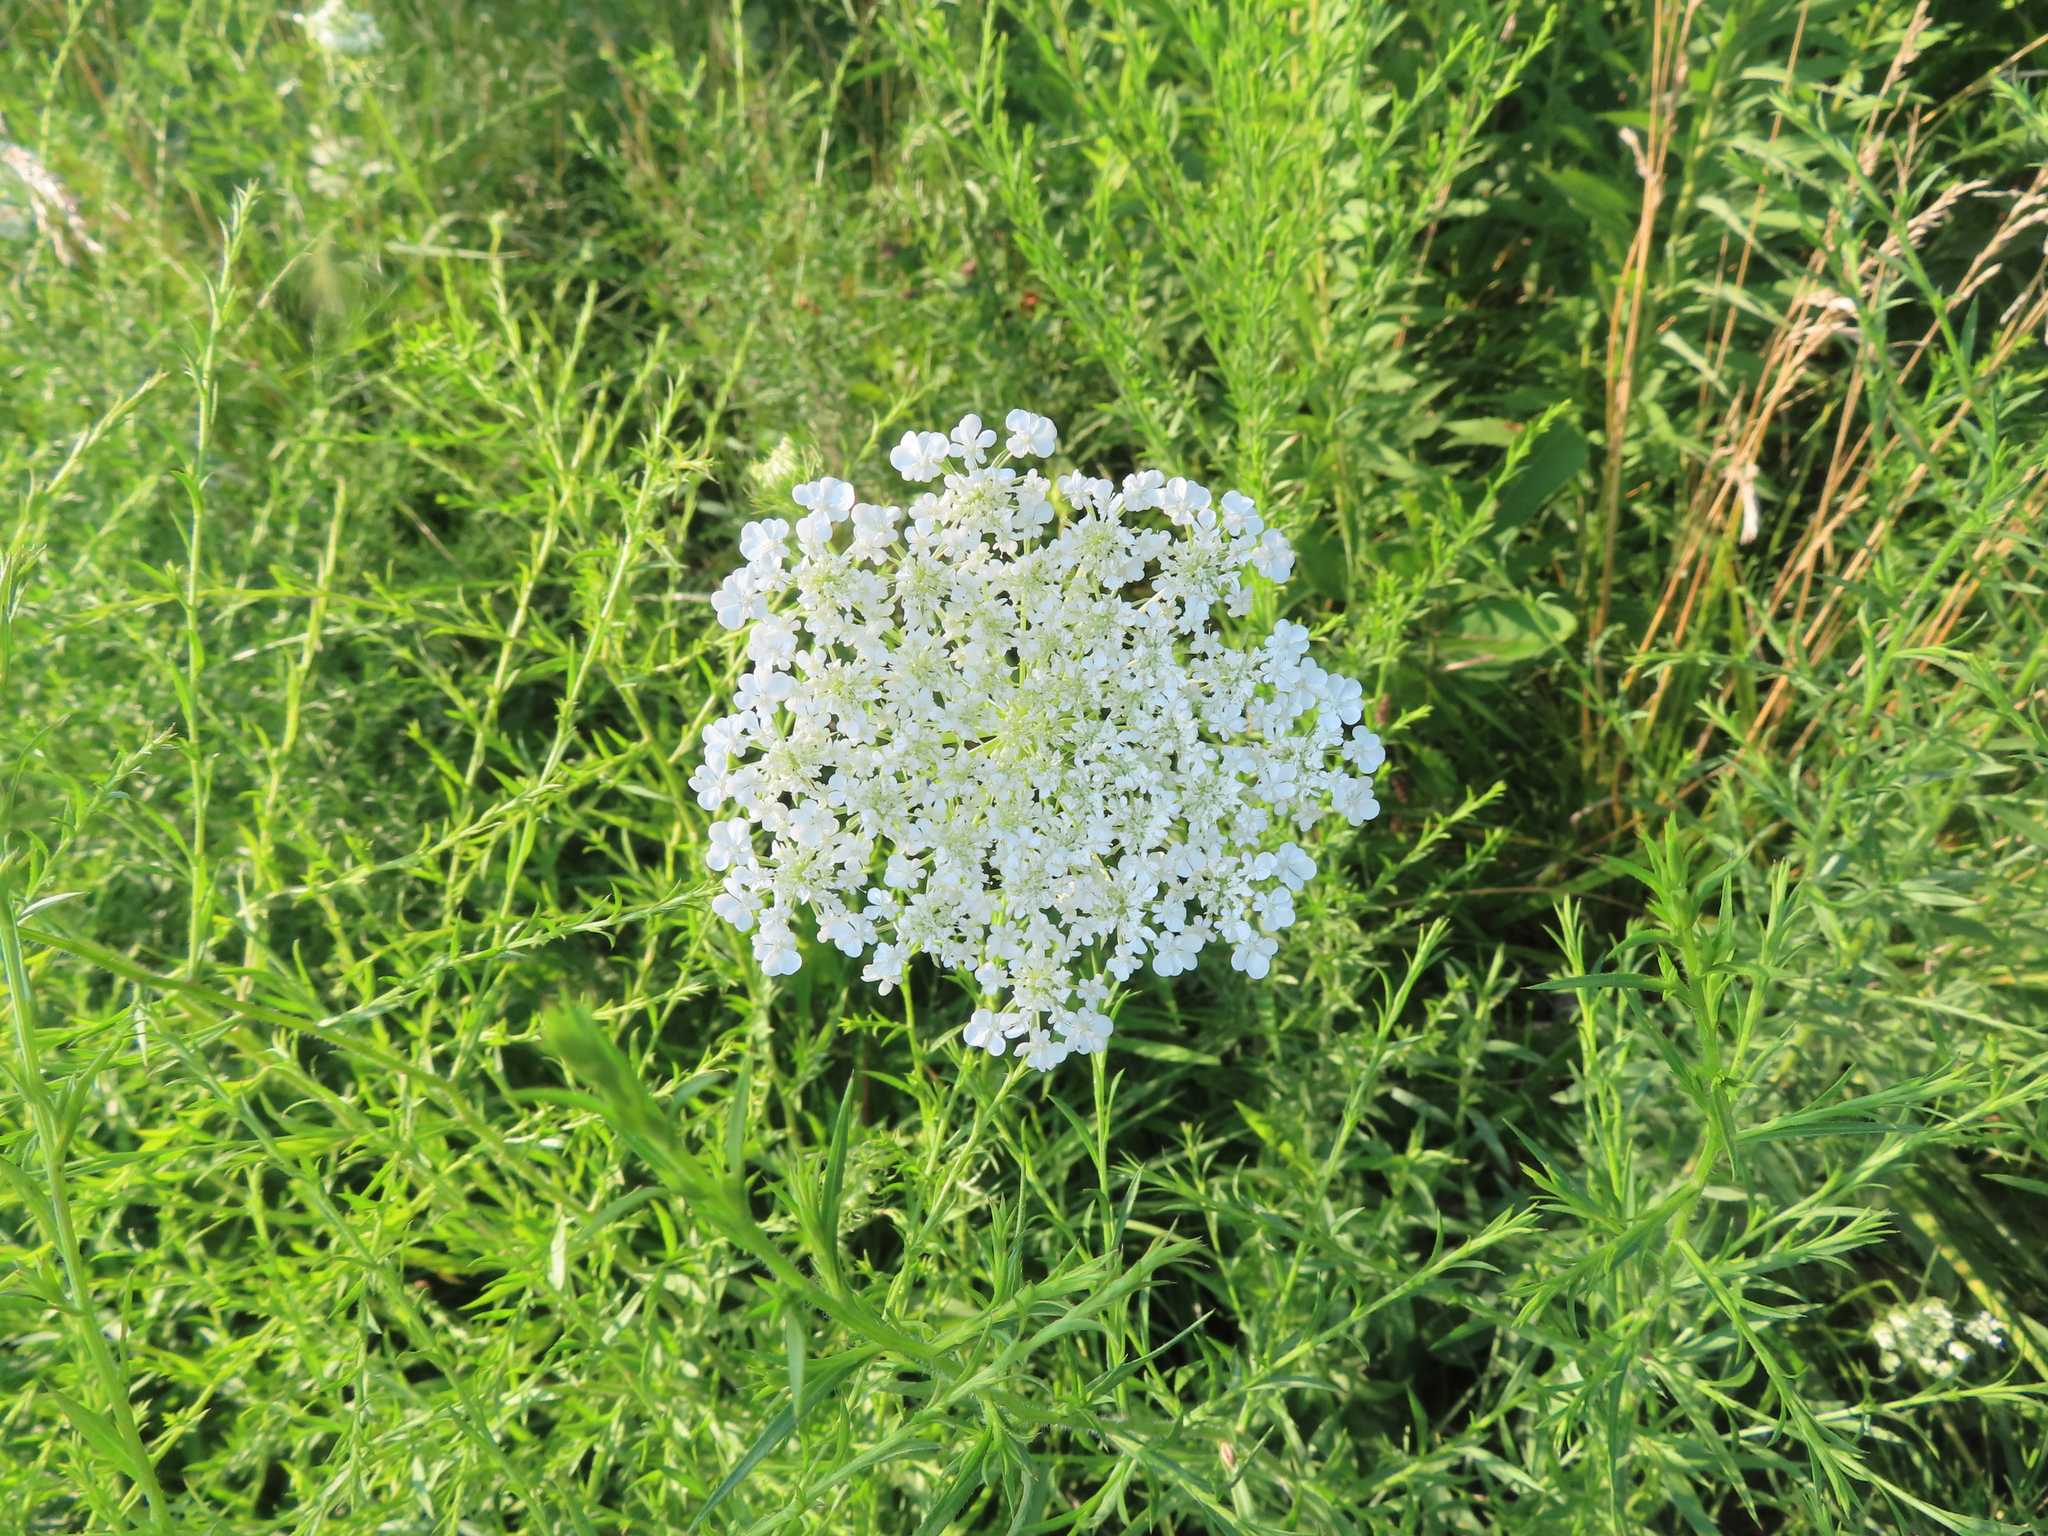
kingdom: Plantae
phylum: Tracheophyta
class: Magnoliopsida
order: Apiales
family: Apiaceae
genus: Daucus
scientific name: Daucus carota
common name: Wild carrot
